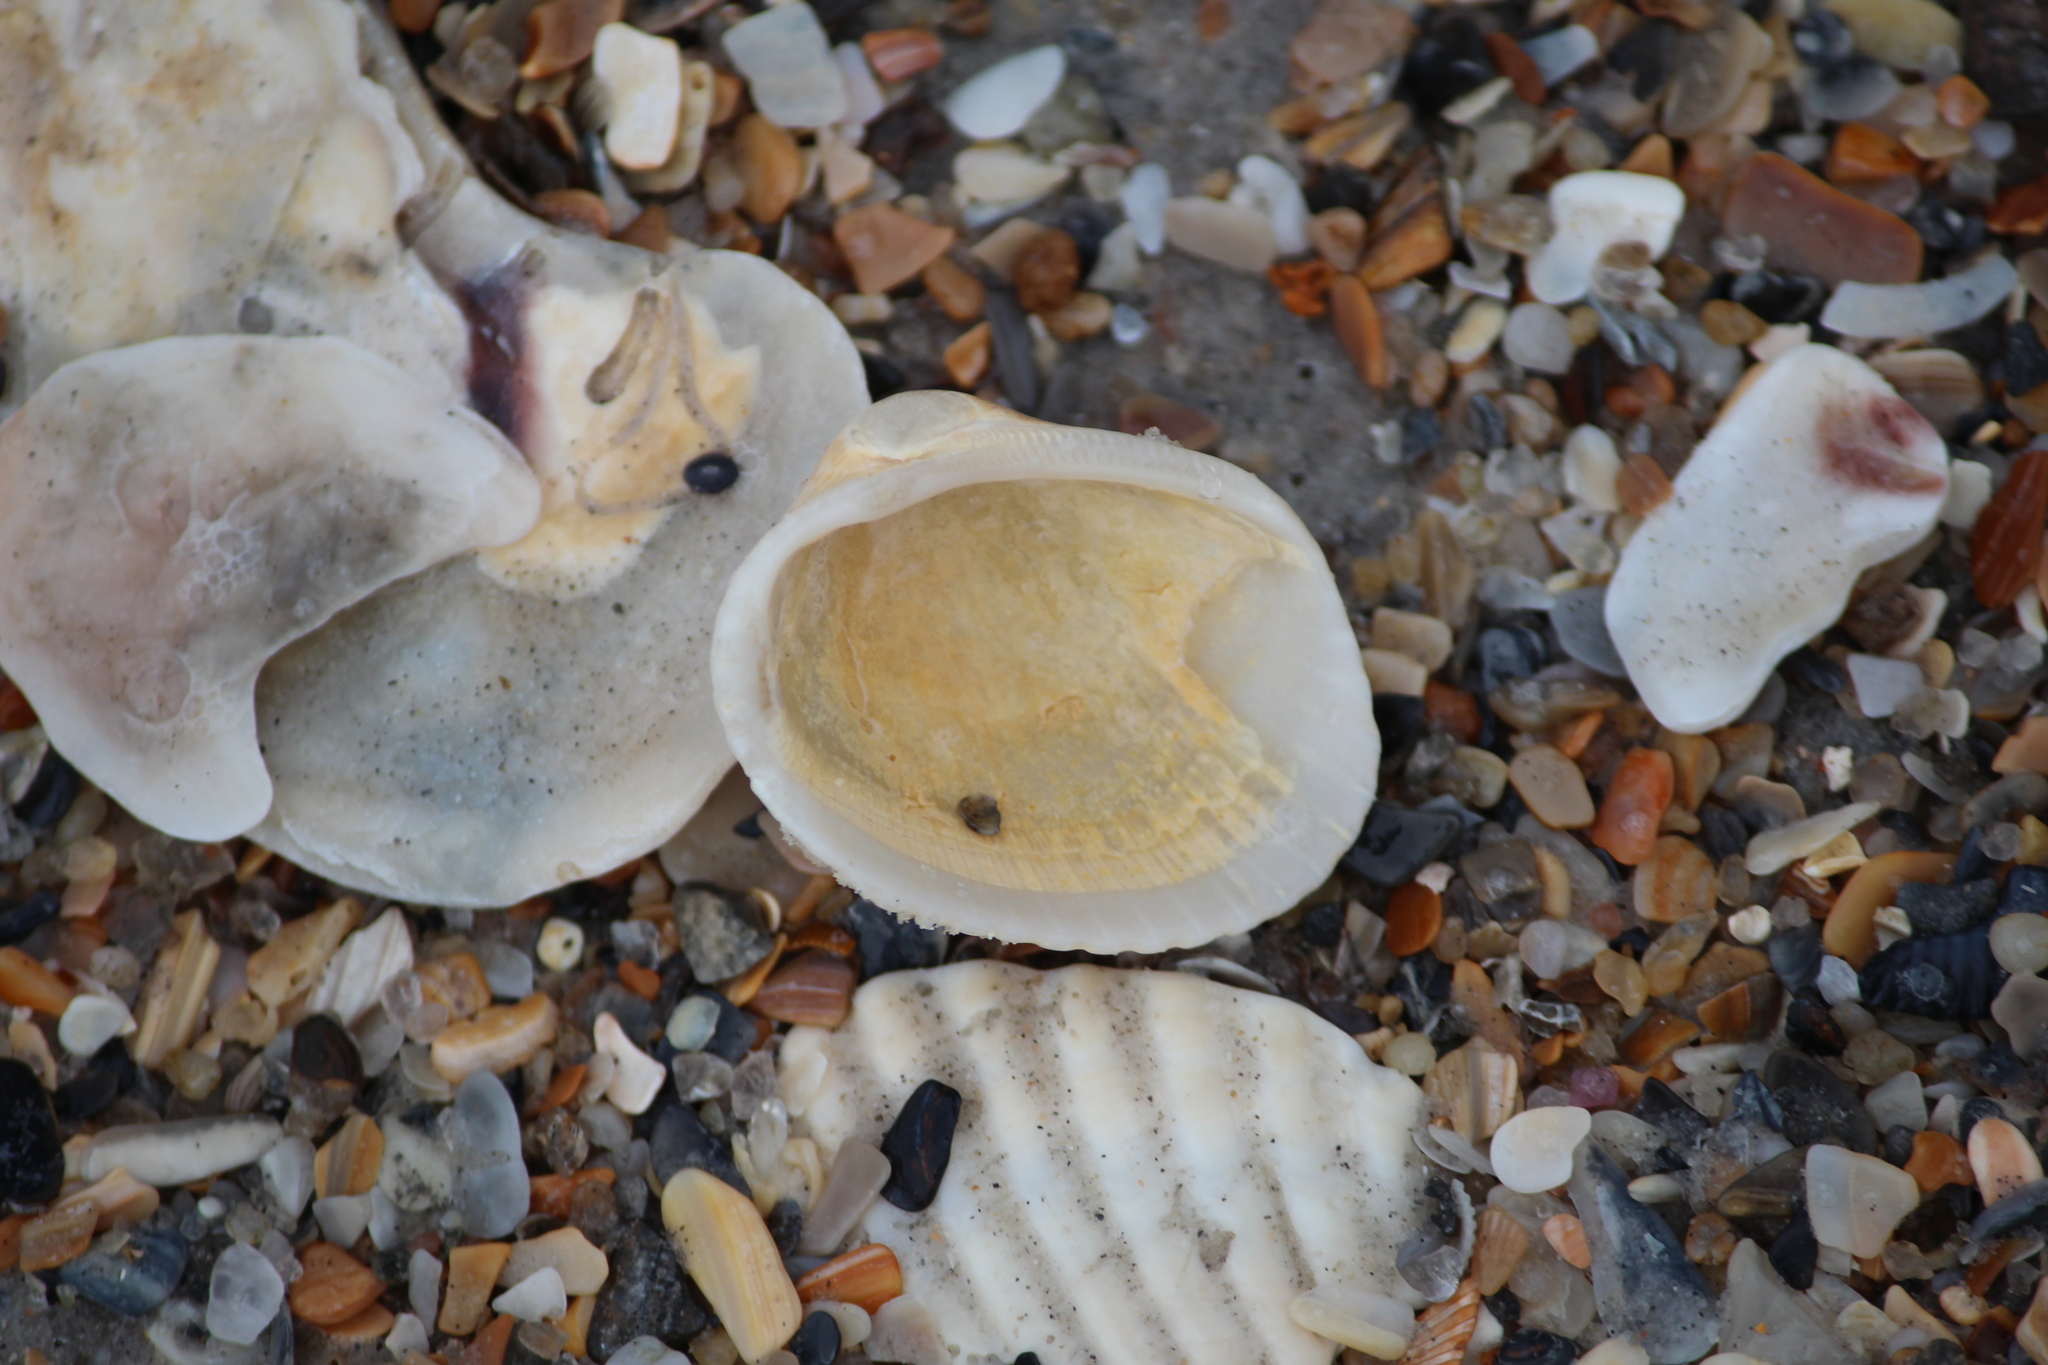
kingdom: Animalia
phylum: Mollusca
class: Bivalvia
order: Arcida
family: Arcidae
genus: Lunarca
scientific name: Lunarca ovalis
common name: Blood ark
